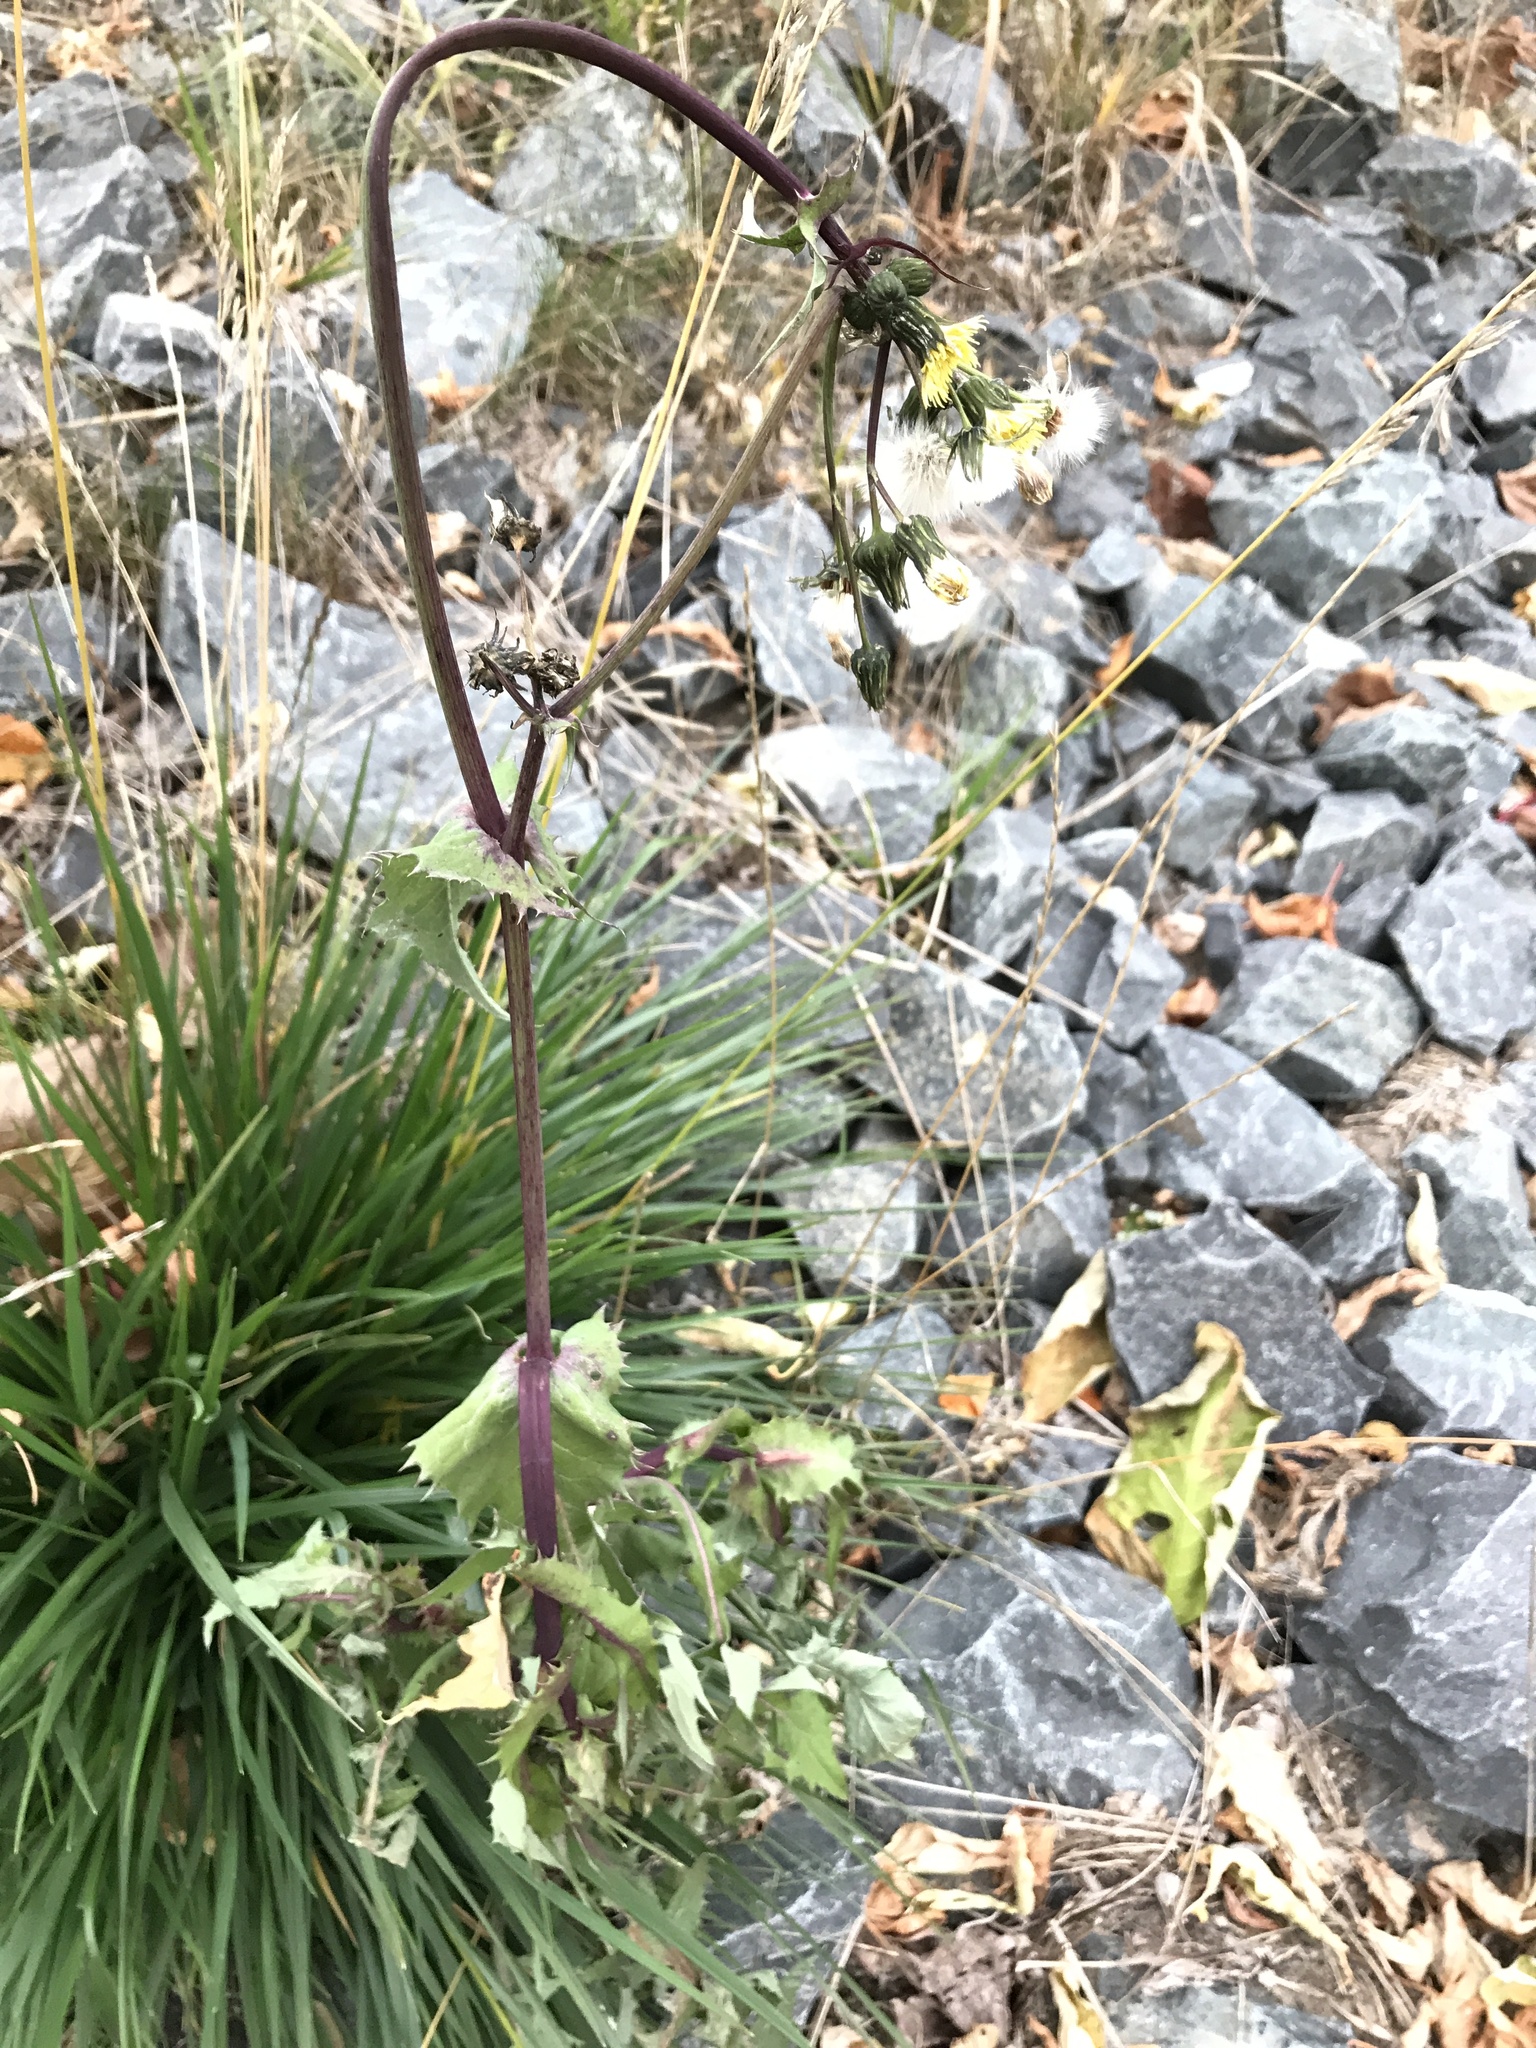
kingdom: Plantae
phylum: Tracheophyta
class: Magnoliopsida
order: Asterales
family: Asteraceae
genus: Sonchus
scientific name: Sonchus asper
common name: Prickly sow-thistle
